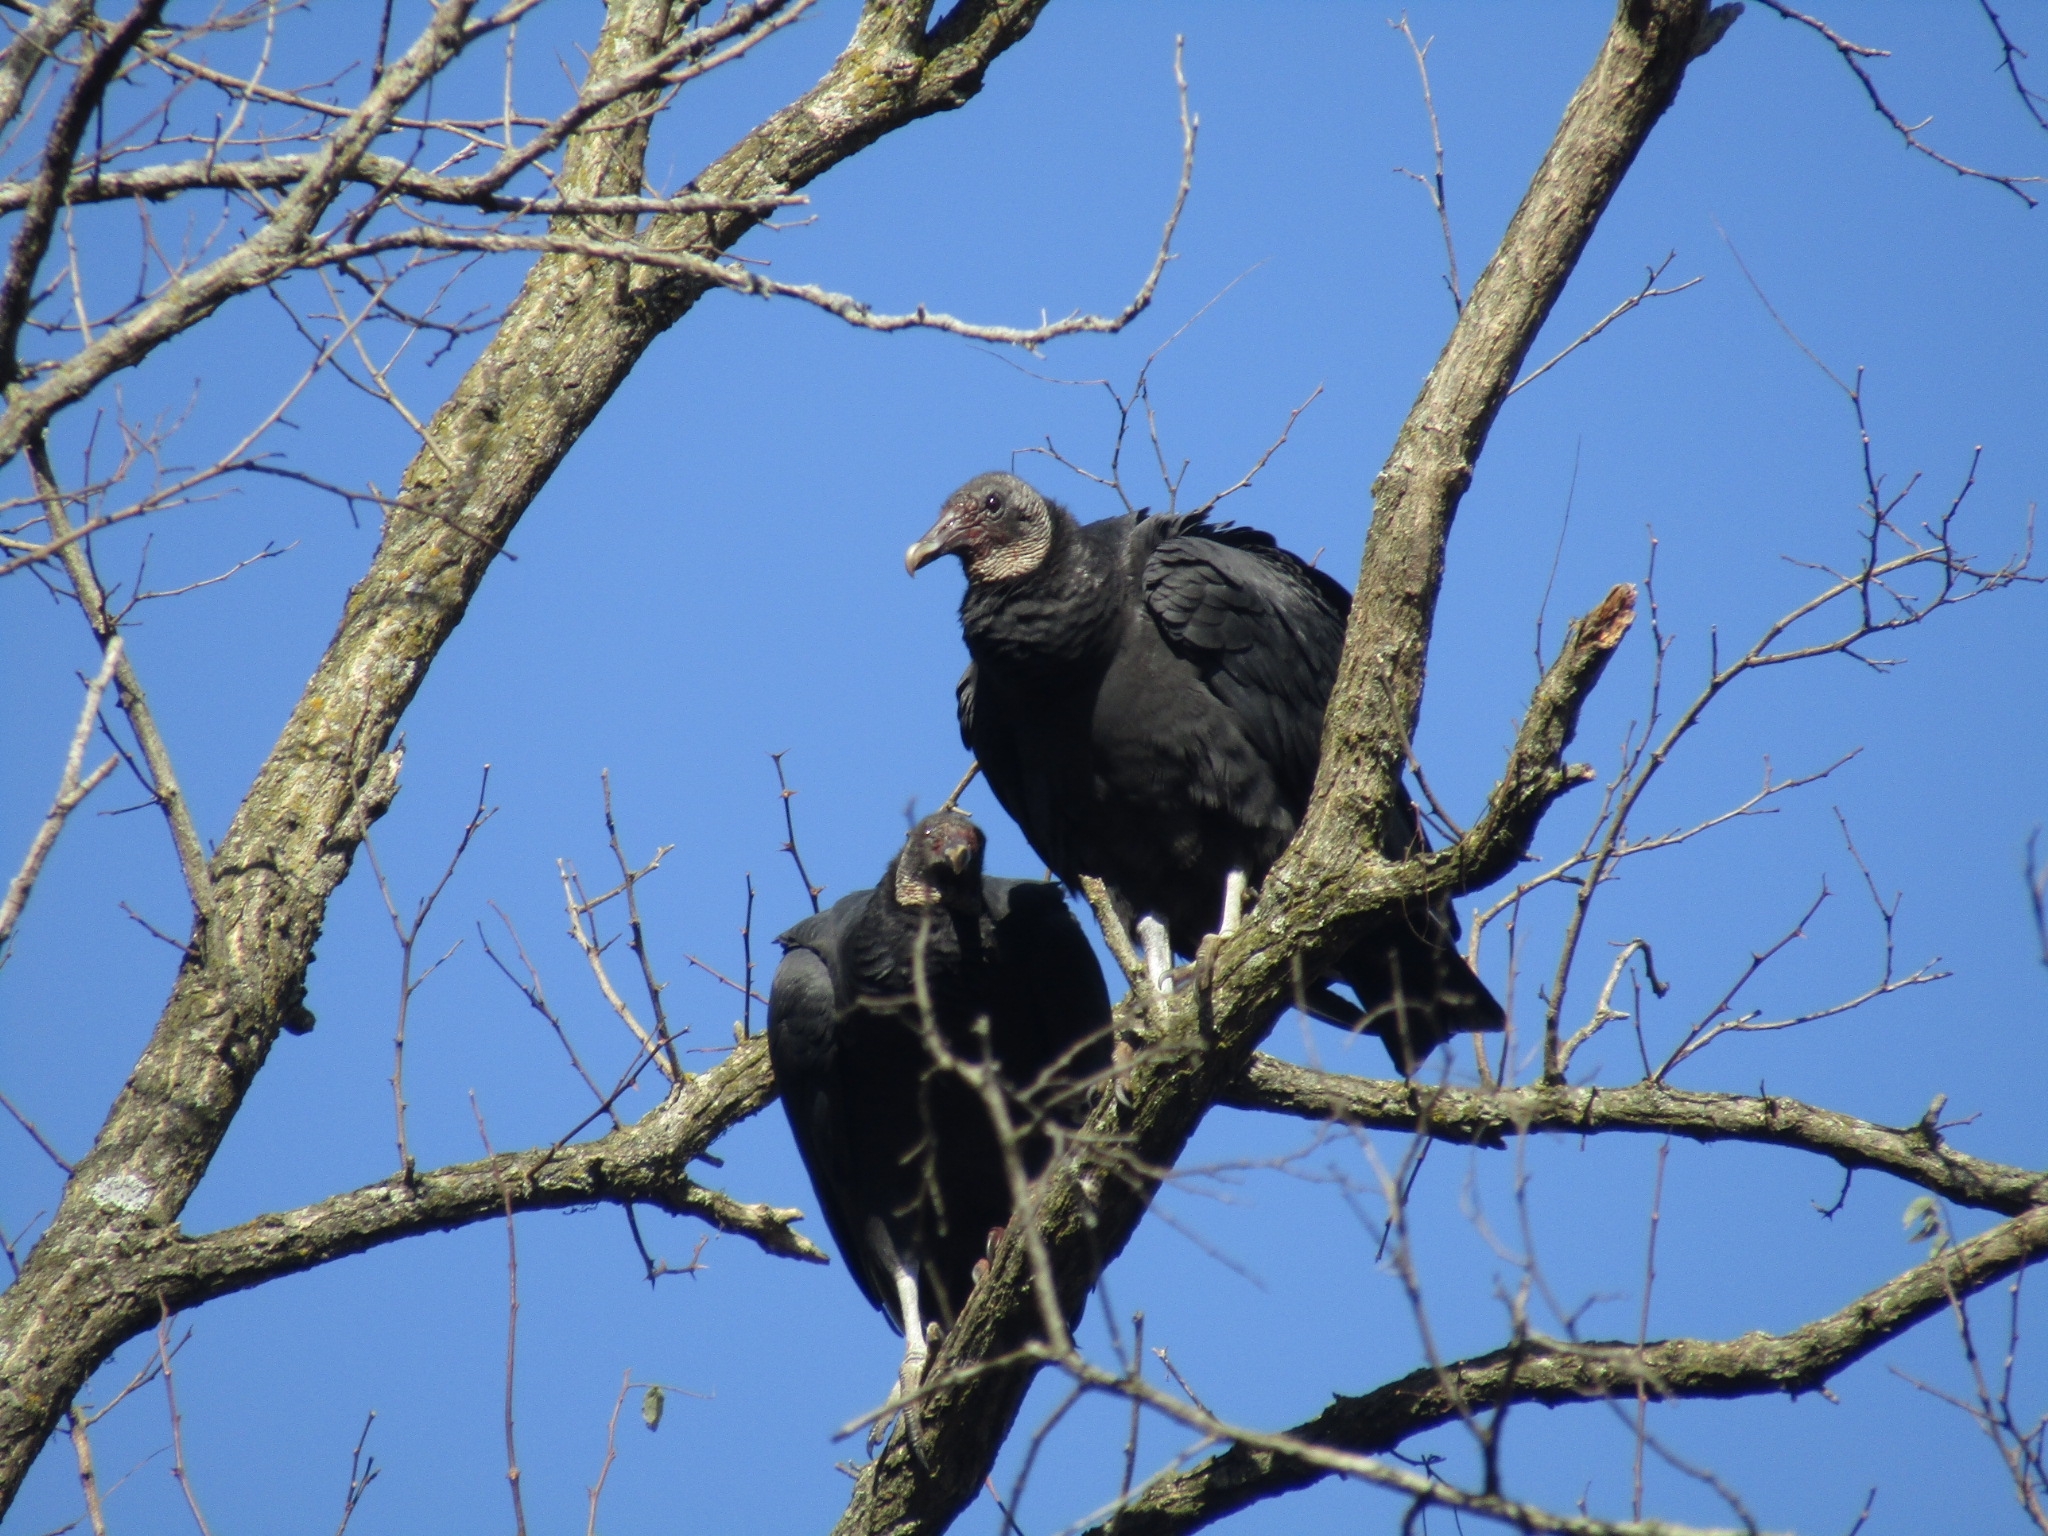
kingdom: Animalia
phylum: Chordata
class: Aves
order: Accipitriformes
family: Cathartidae
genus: Coragyps
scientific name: Coragyps atratus
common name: Black vulture
